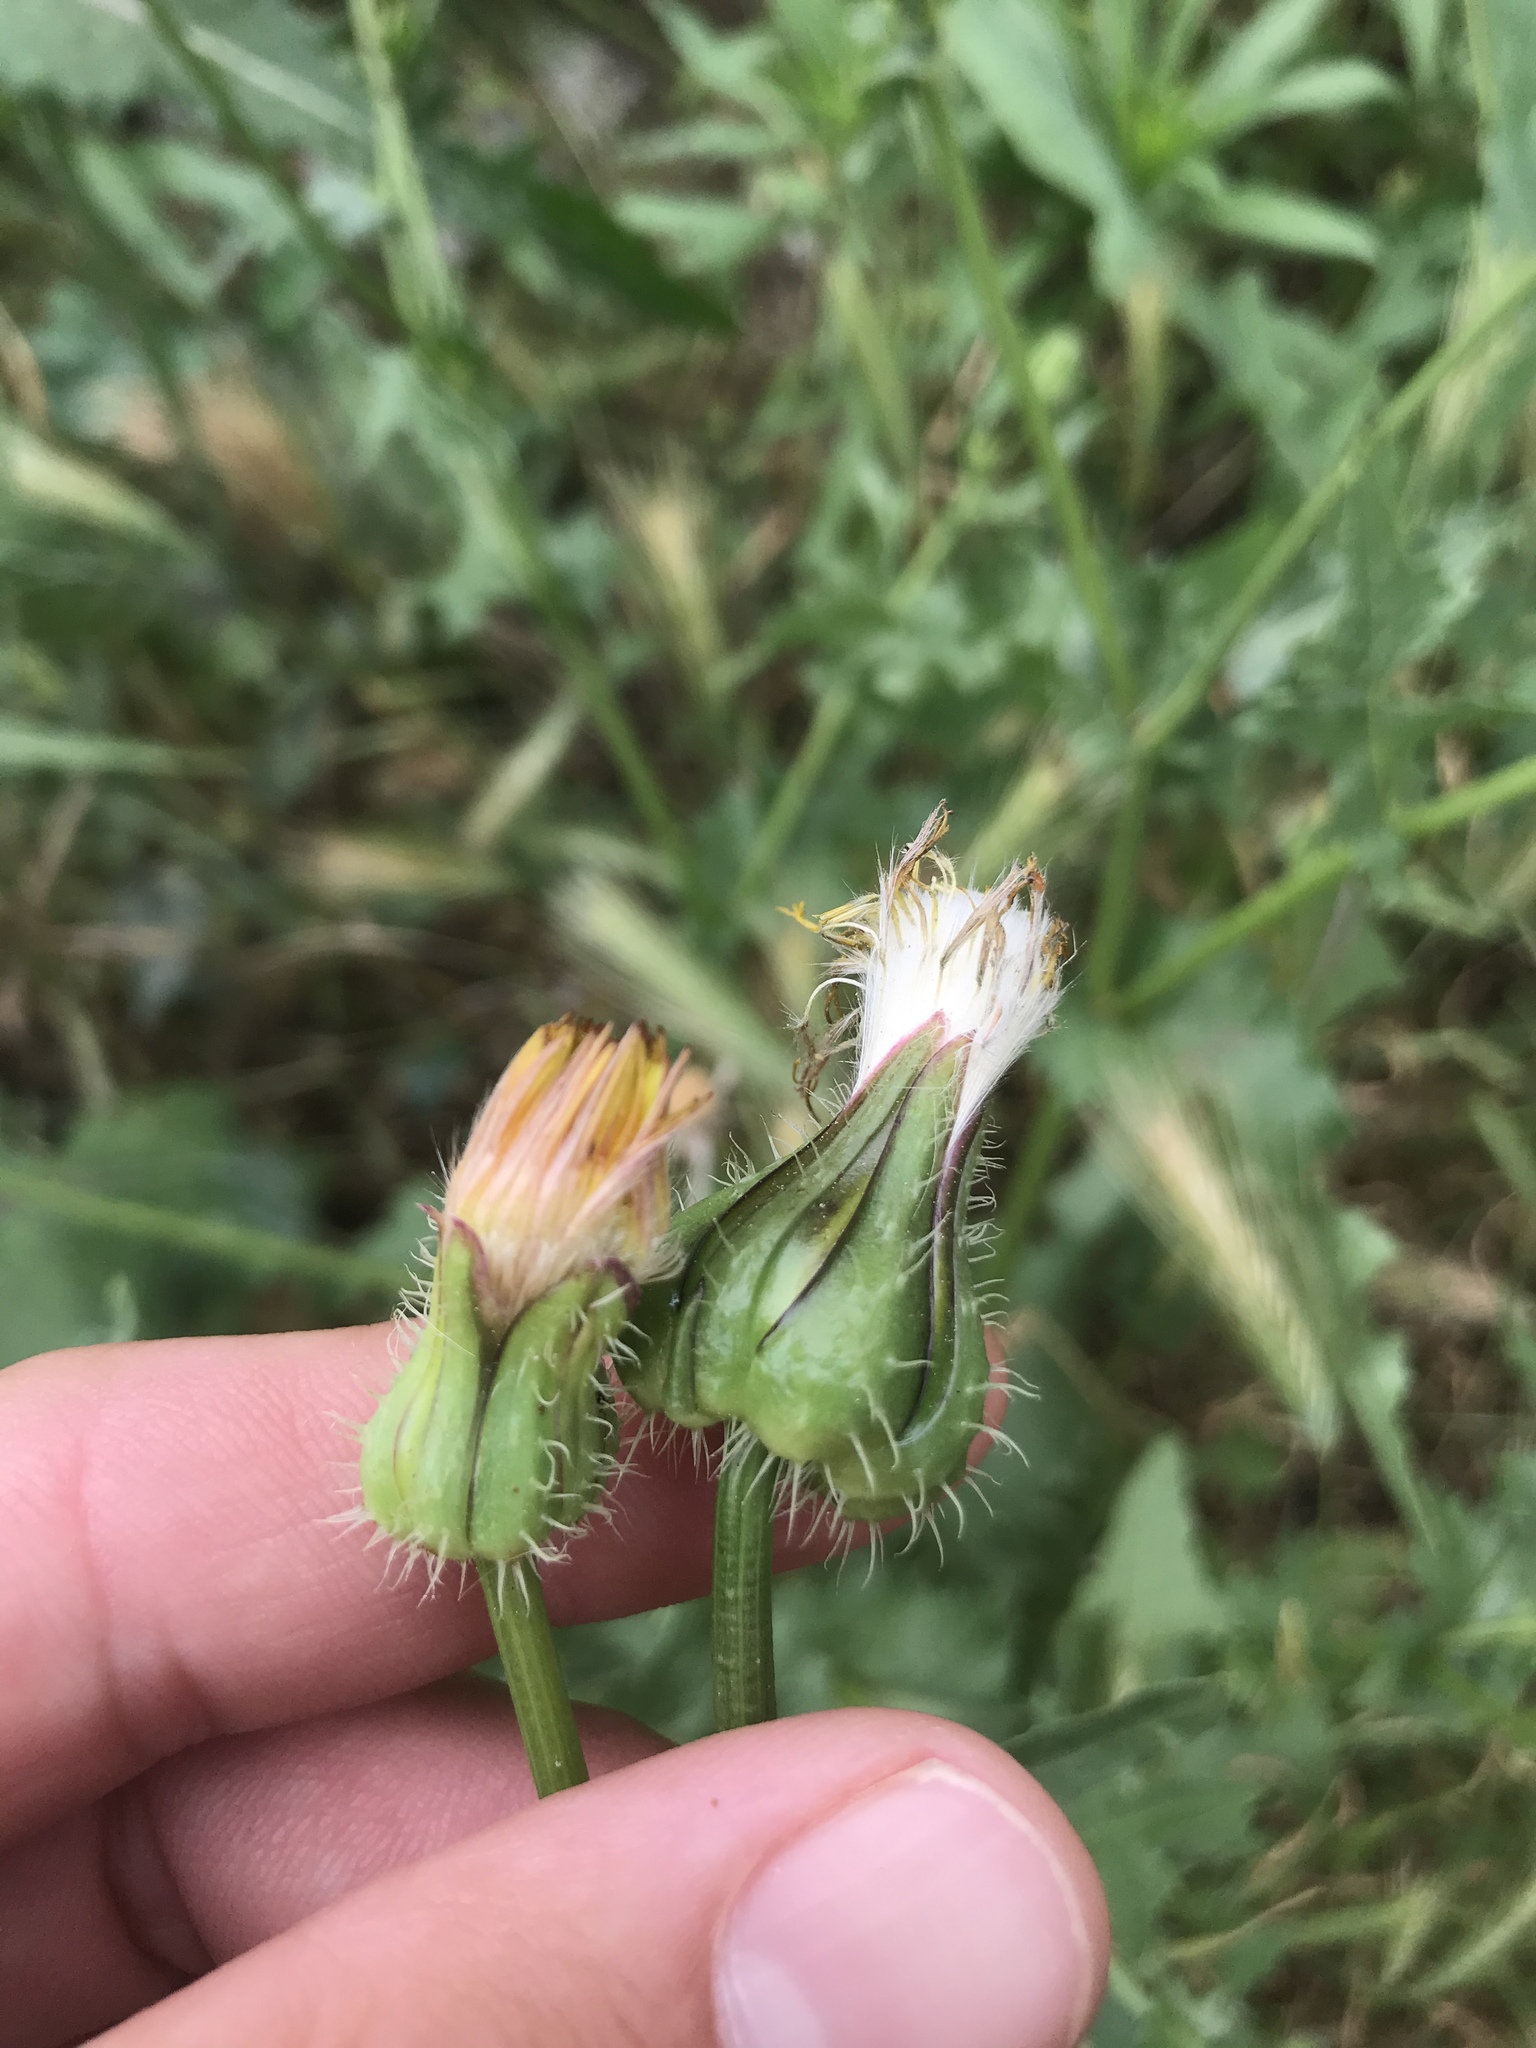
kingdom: Plantae
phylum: Tracheophyta
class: Magnoliopsida
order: Asterales
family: Asteraceae
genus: Urospermum
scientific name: Urospermum picroides
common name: False hawkbit
